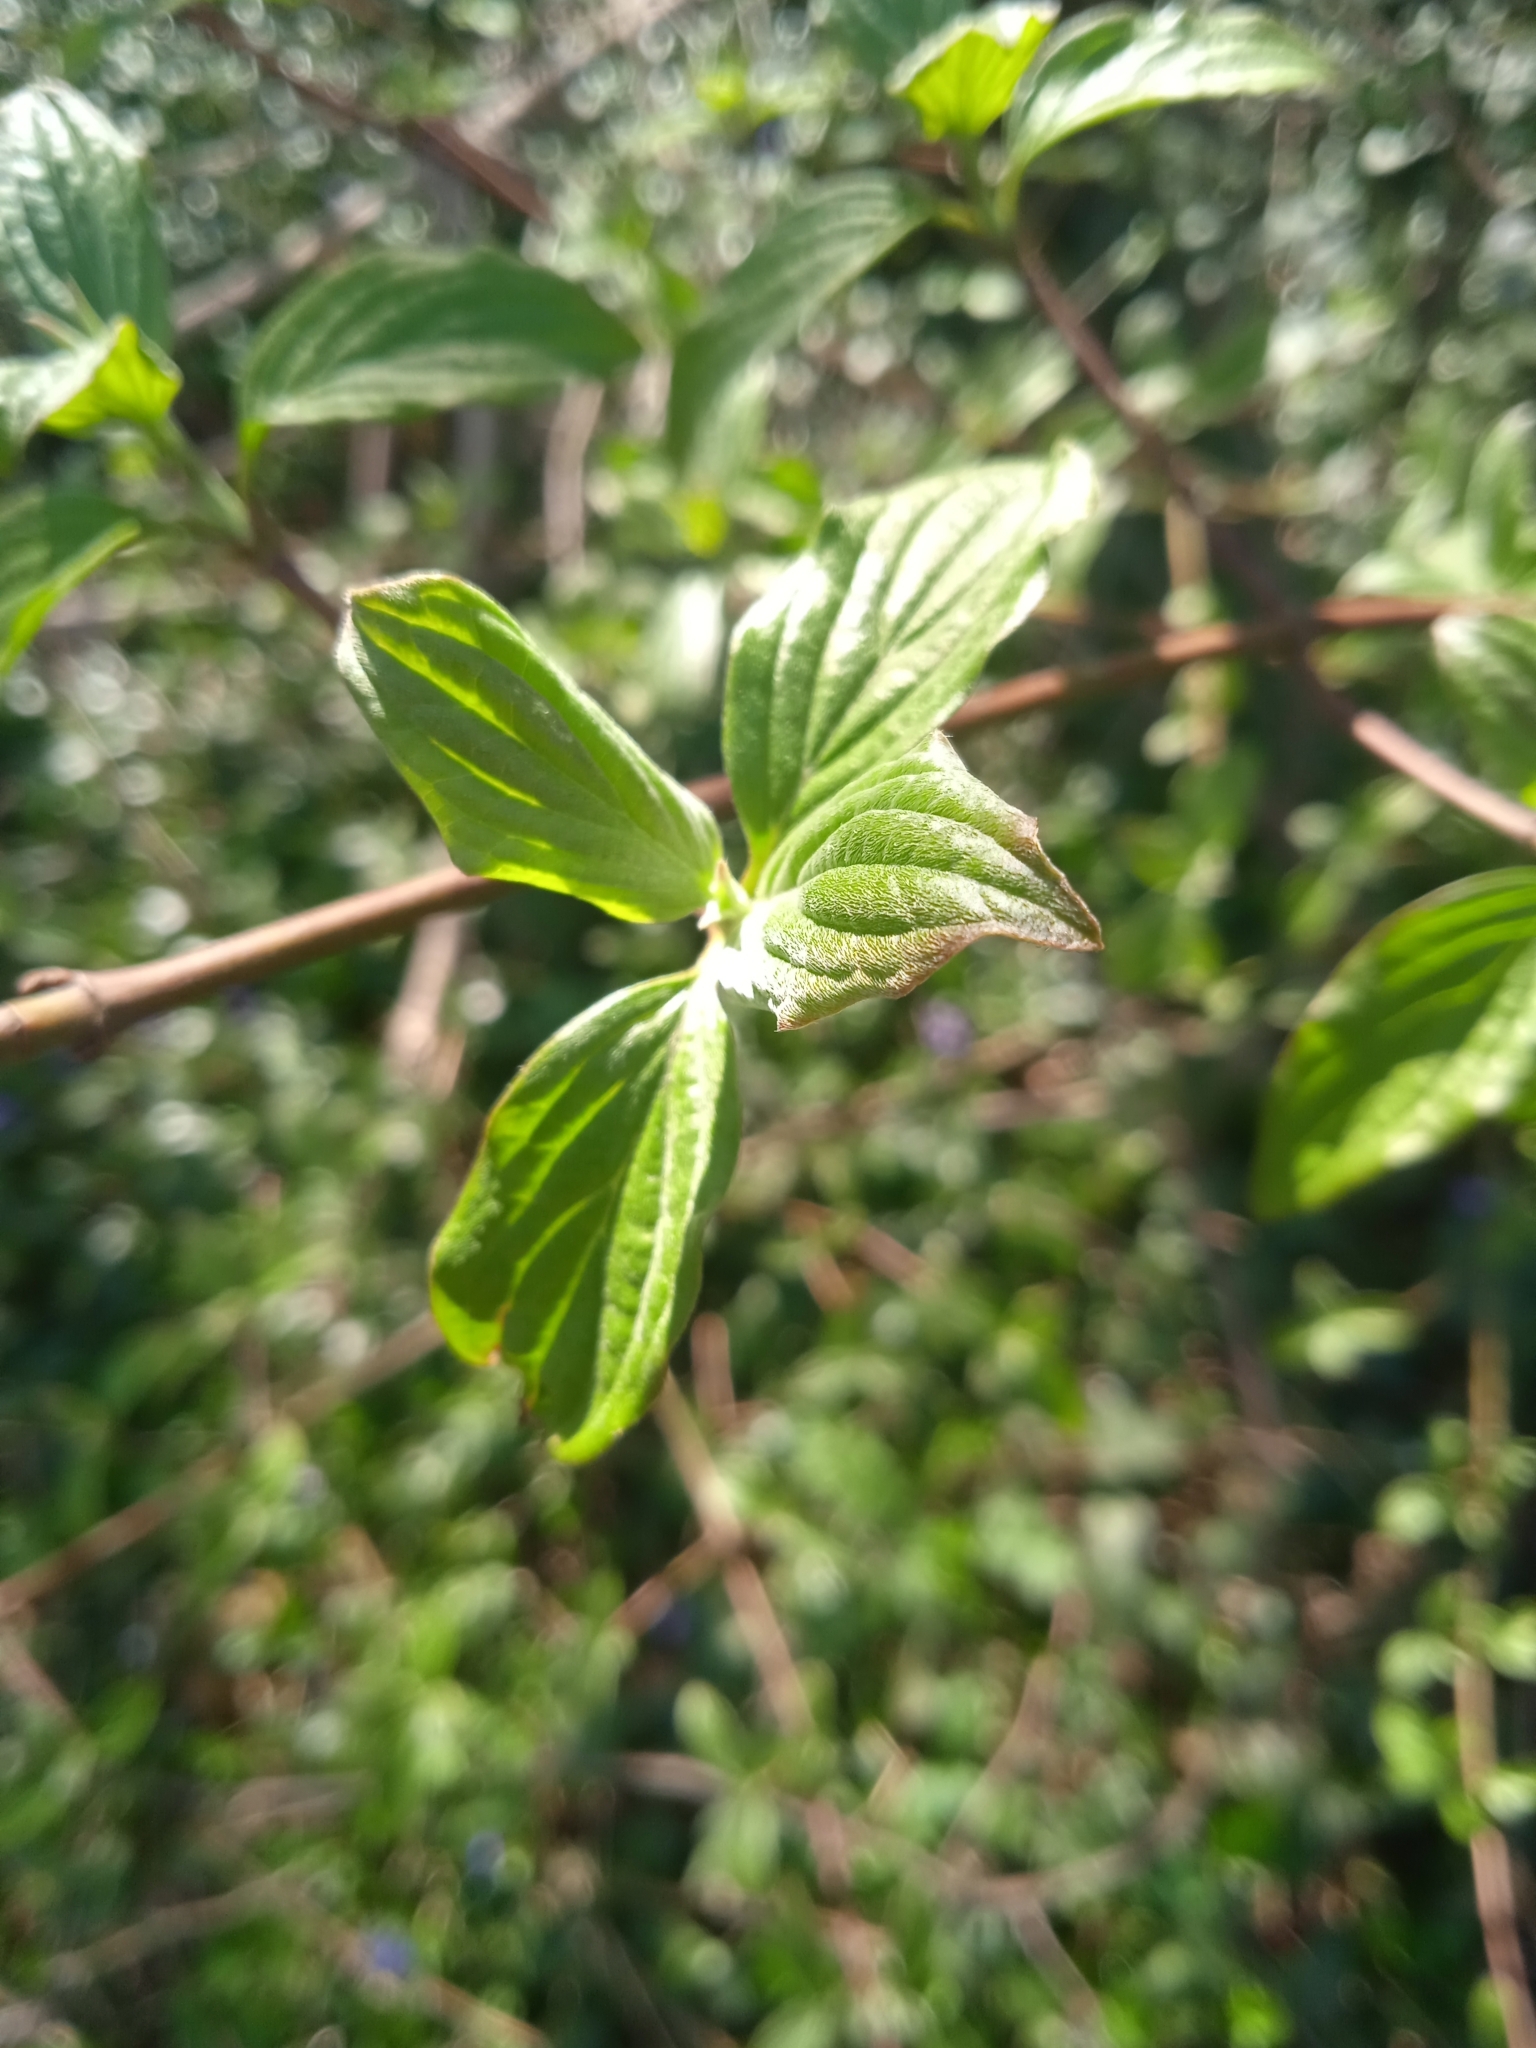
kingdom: Plantae
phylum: Tracheophyta
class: Magnoliopsida
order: Cornales
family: Cornaceae
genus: Cornus
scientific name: Cornus sanguinea
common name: Dogwood
